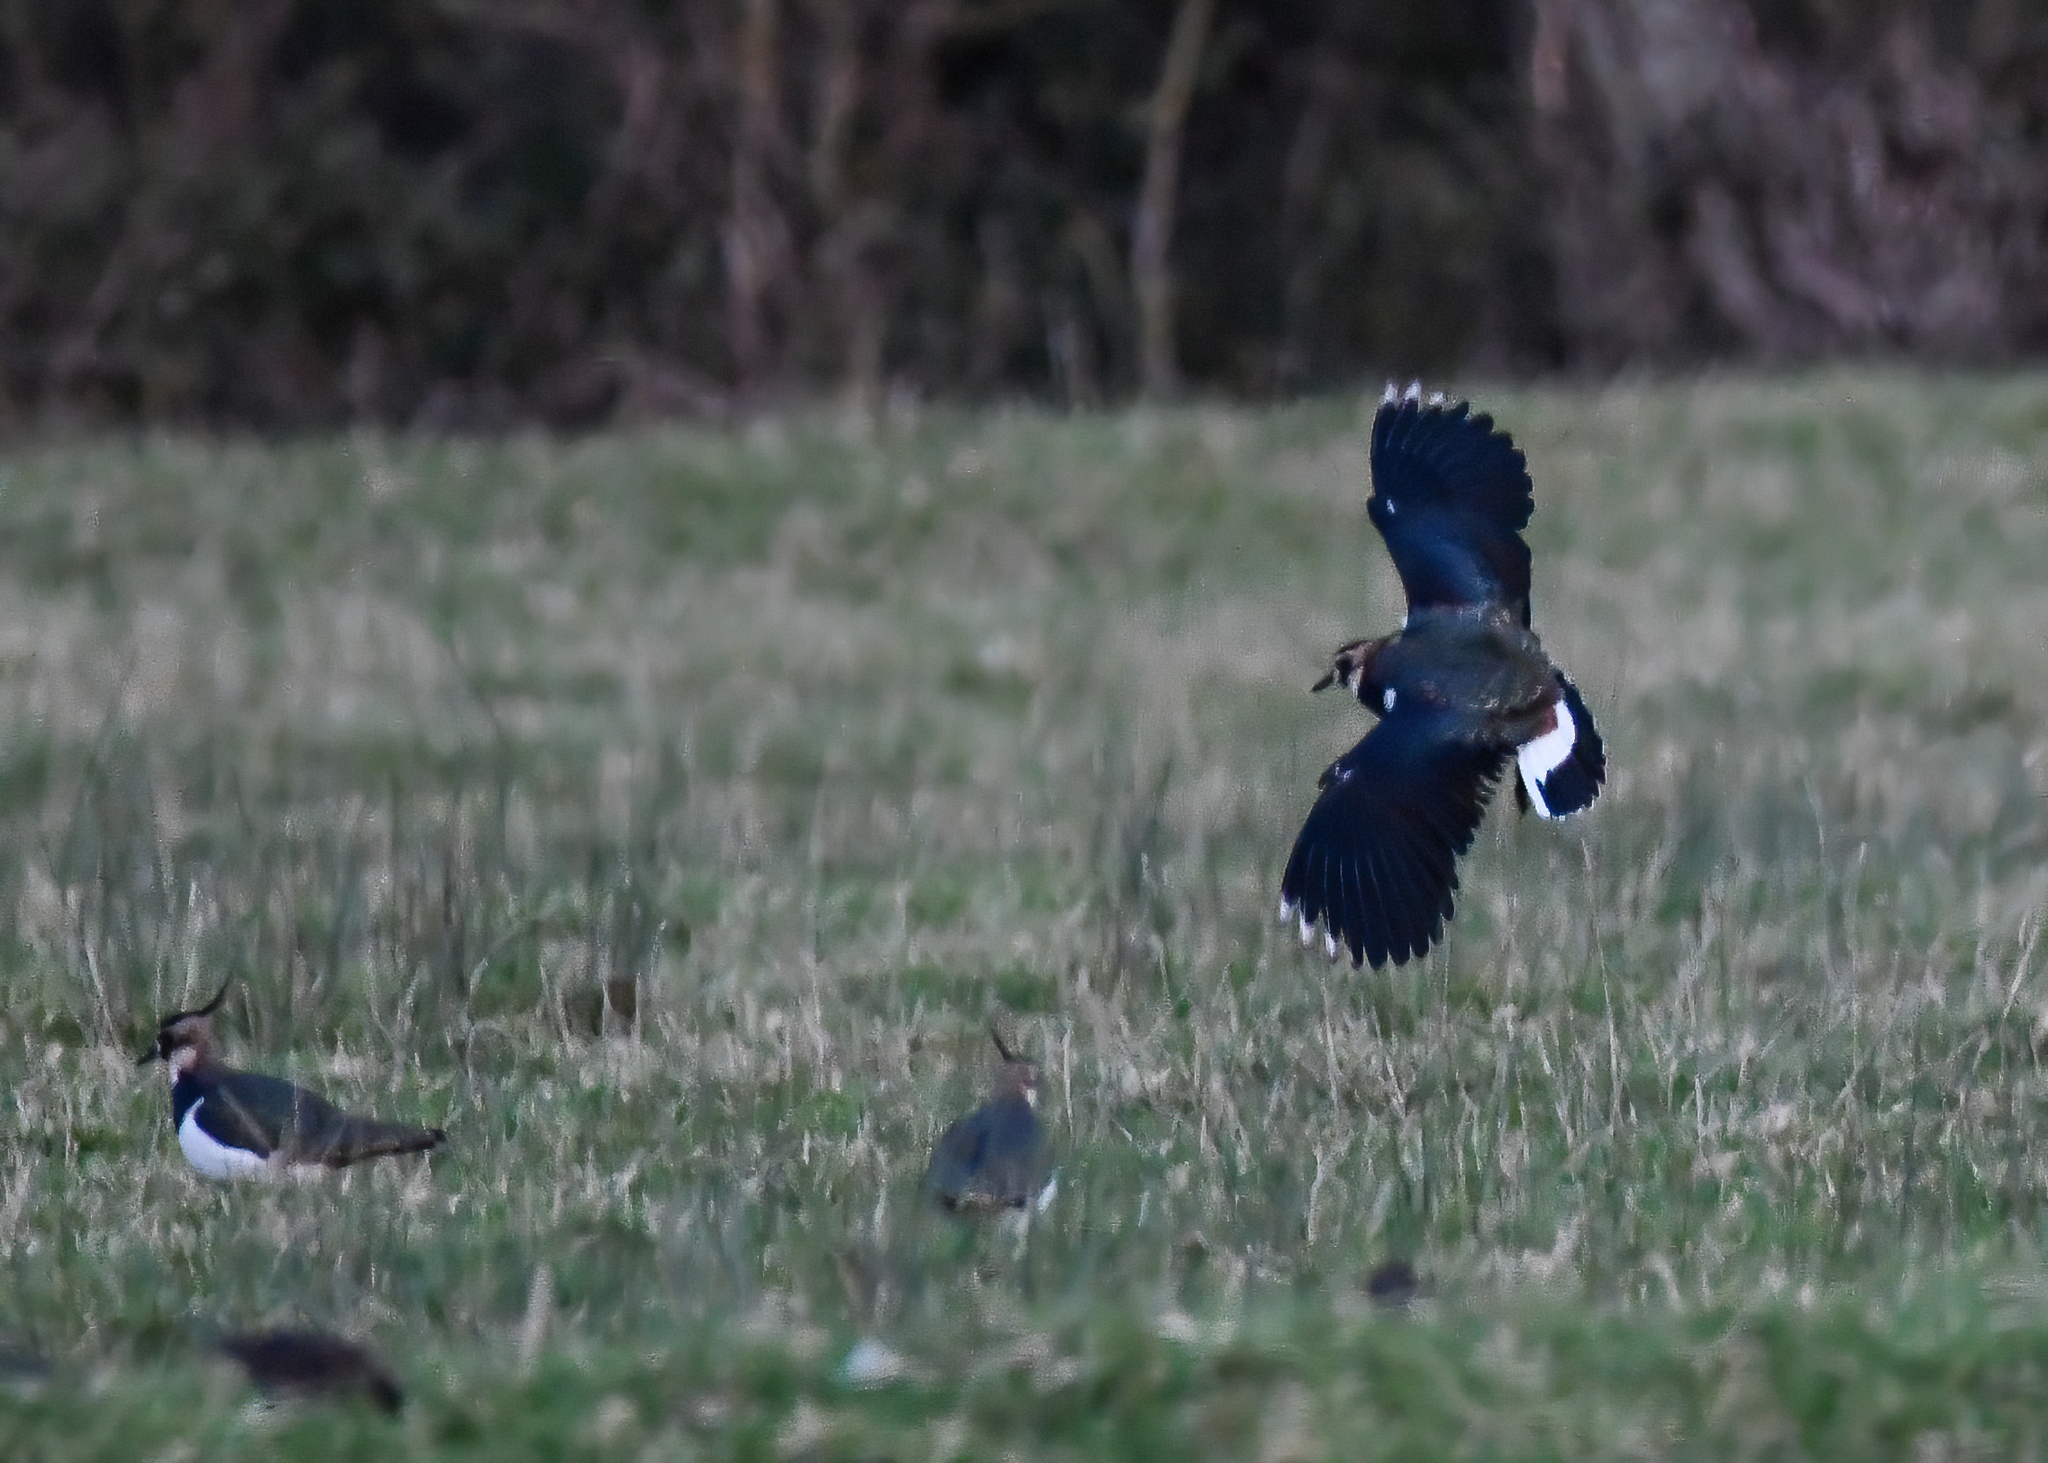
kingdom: Animalia
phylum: Chordata
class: Aves
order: Charadriiformes
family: Charadriidae
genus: Vanellus
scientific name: Vanellus vanellus
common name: Northern lapwing
